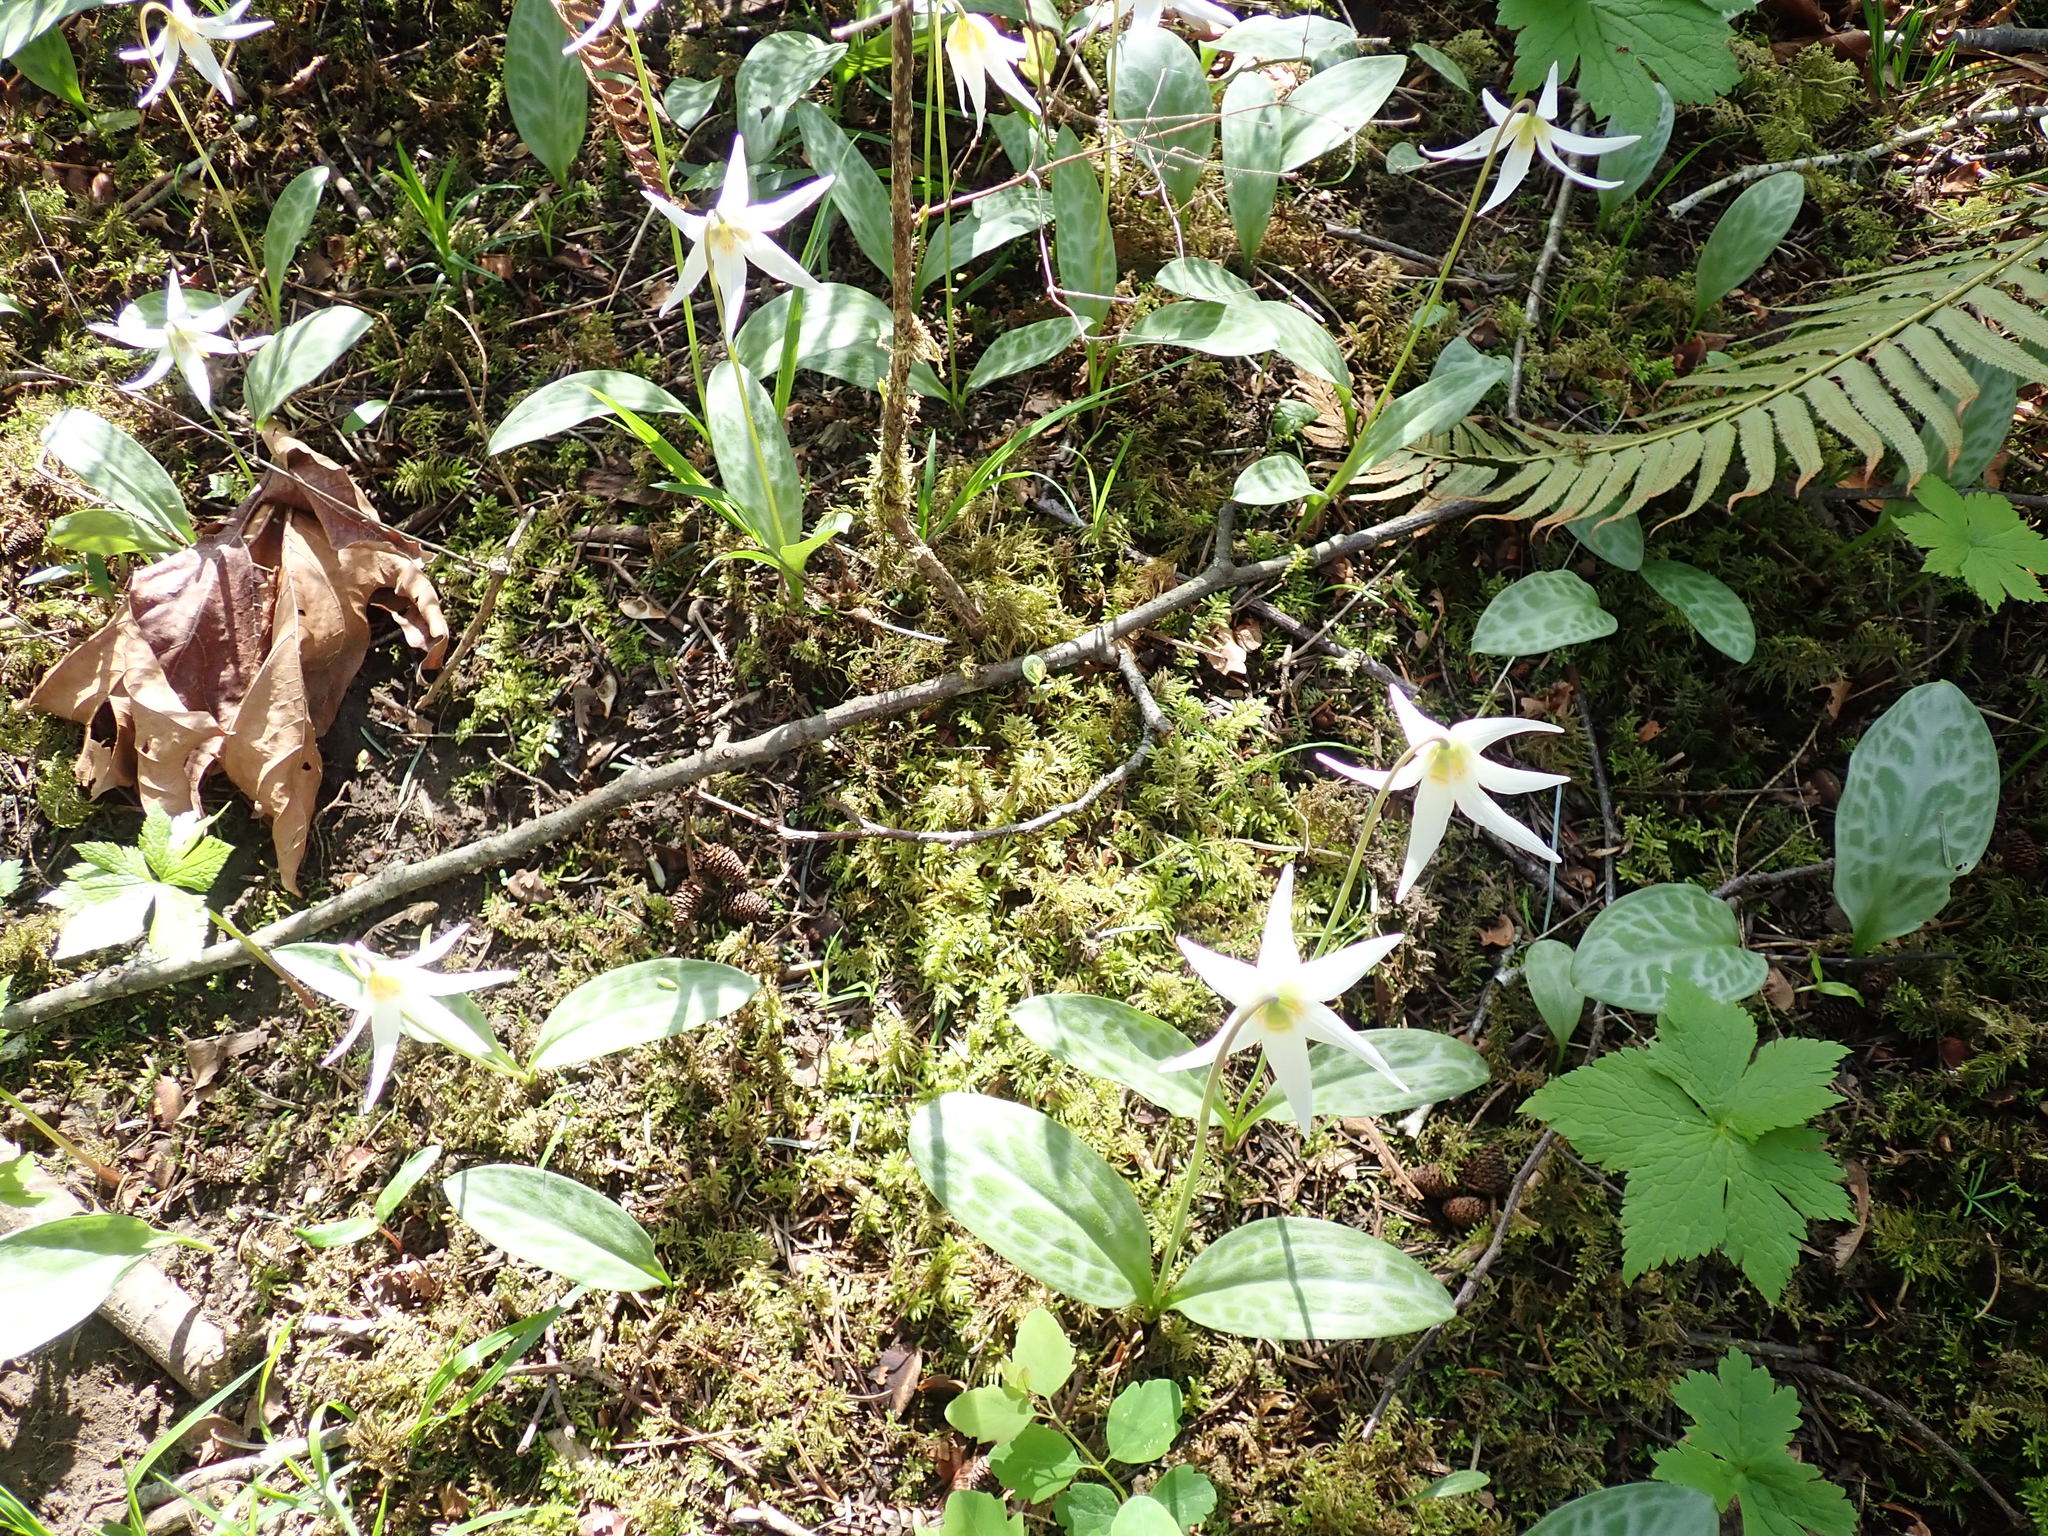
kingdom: Plantae
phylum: Tracheophyta
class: Liliopsida
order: Liliales
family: Liliaceae
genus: Erythronium
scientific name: Erythronium oregonum
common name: Giant adder's-tongue
